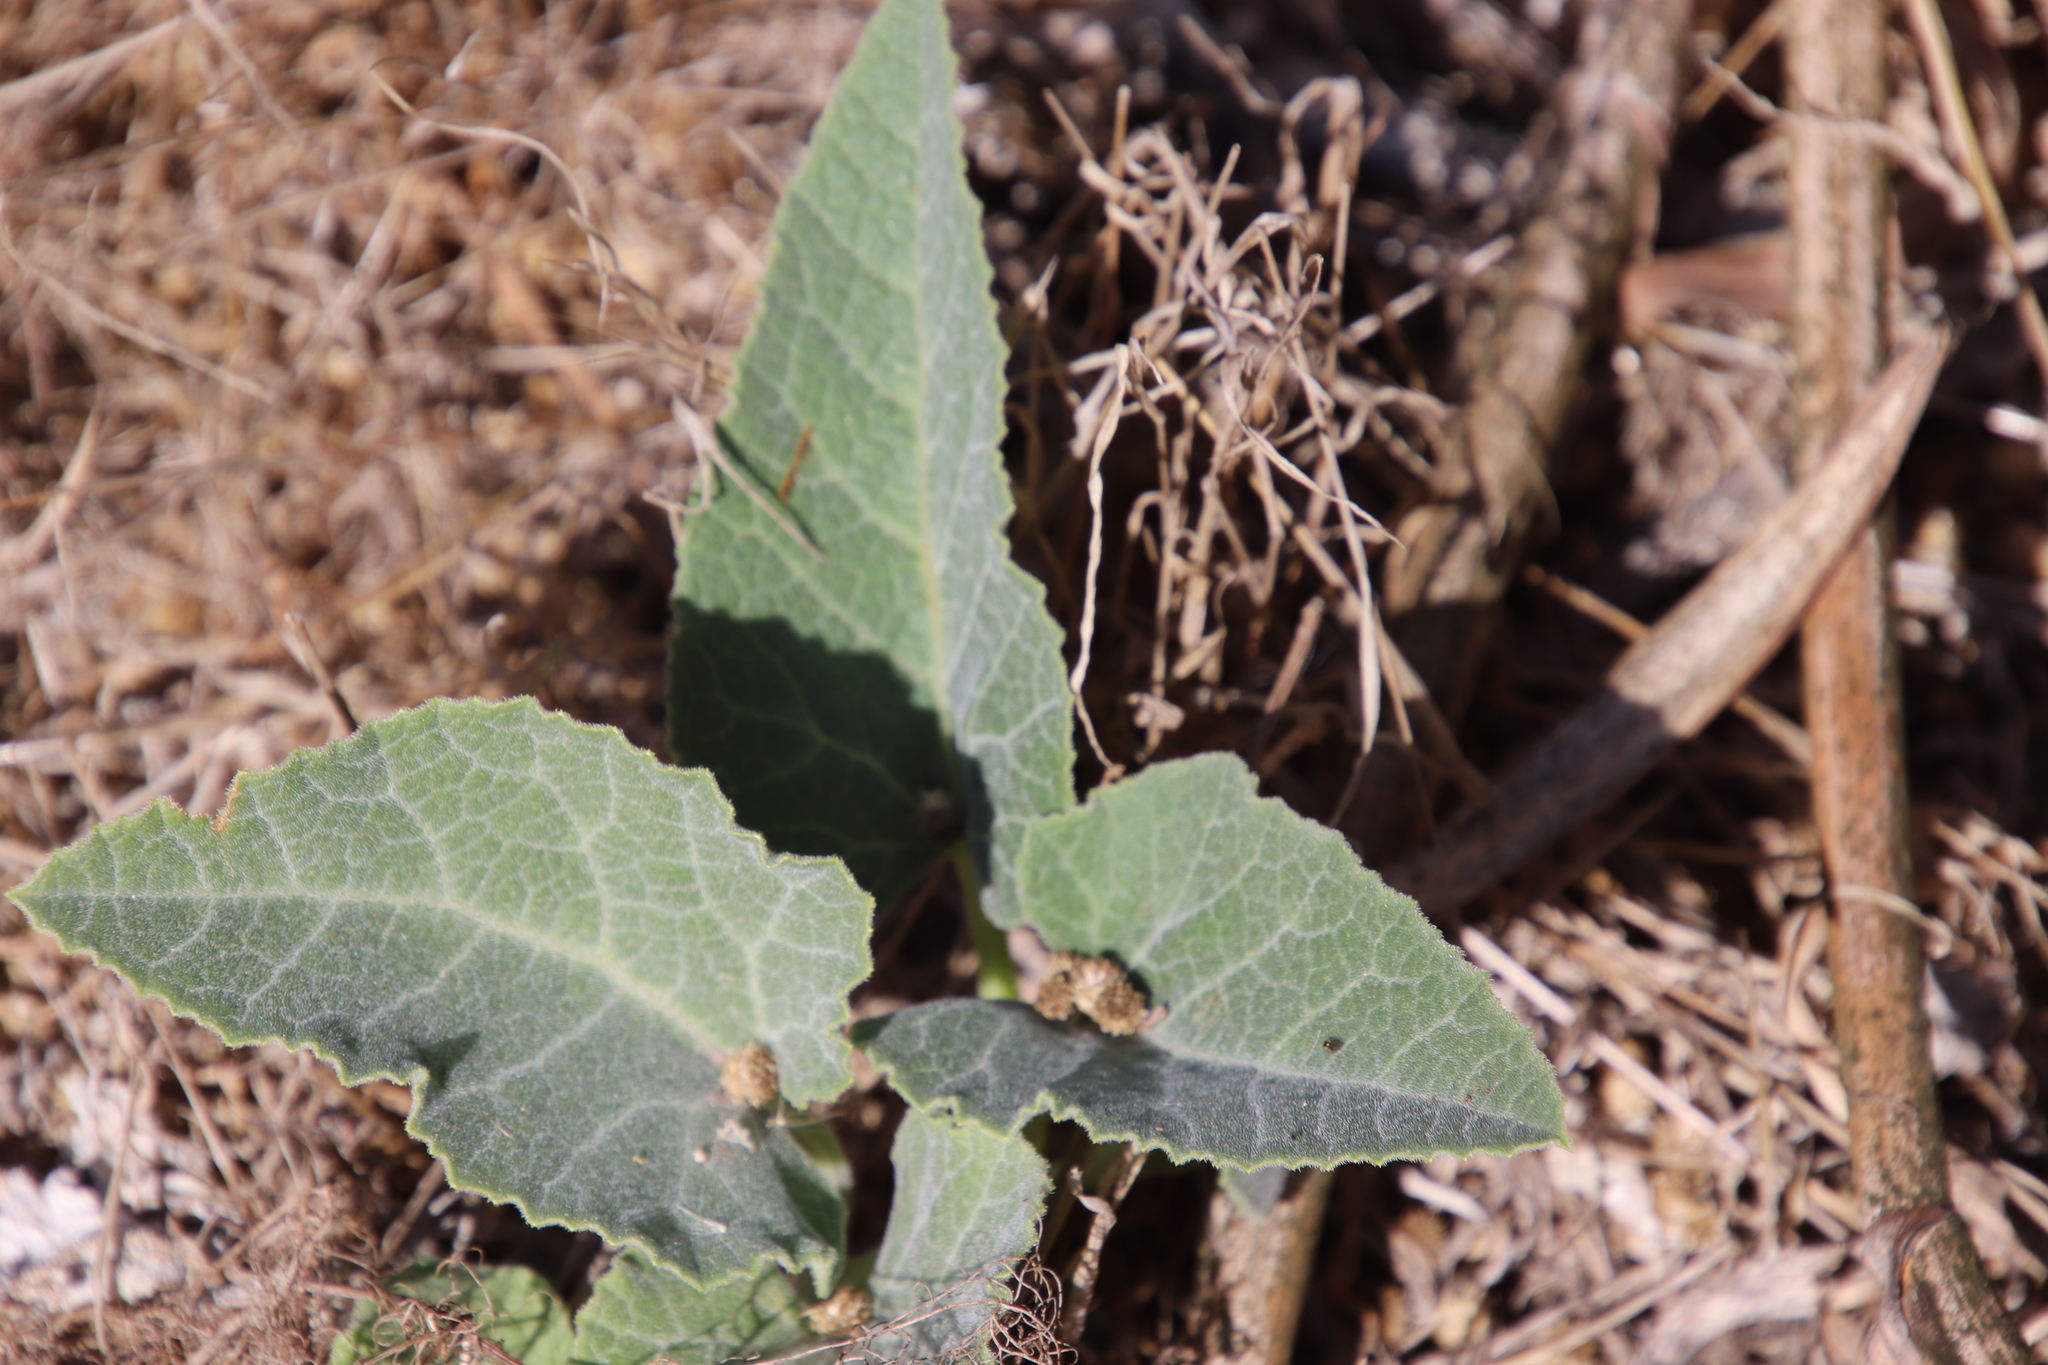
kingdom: Plantae
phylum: Tracheophyta
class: Magnoliopsida
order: Cucurbitales
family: Cucurbitaceae
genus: Cucurbita
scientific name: Cucurbita foetidissima
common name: Buffalo gourd
